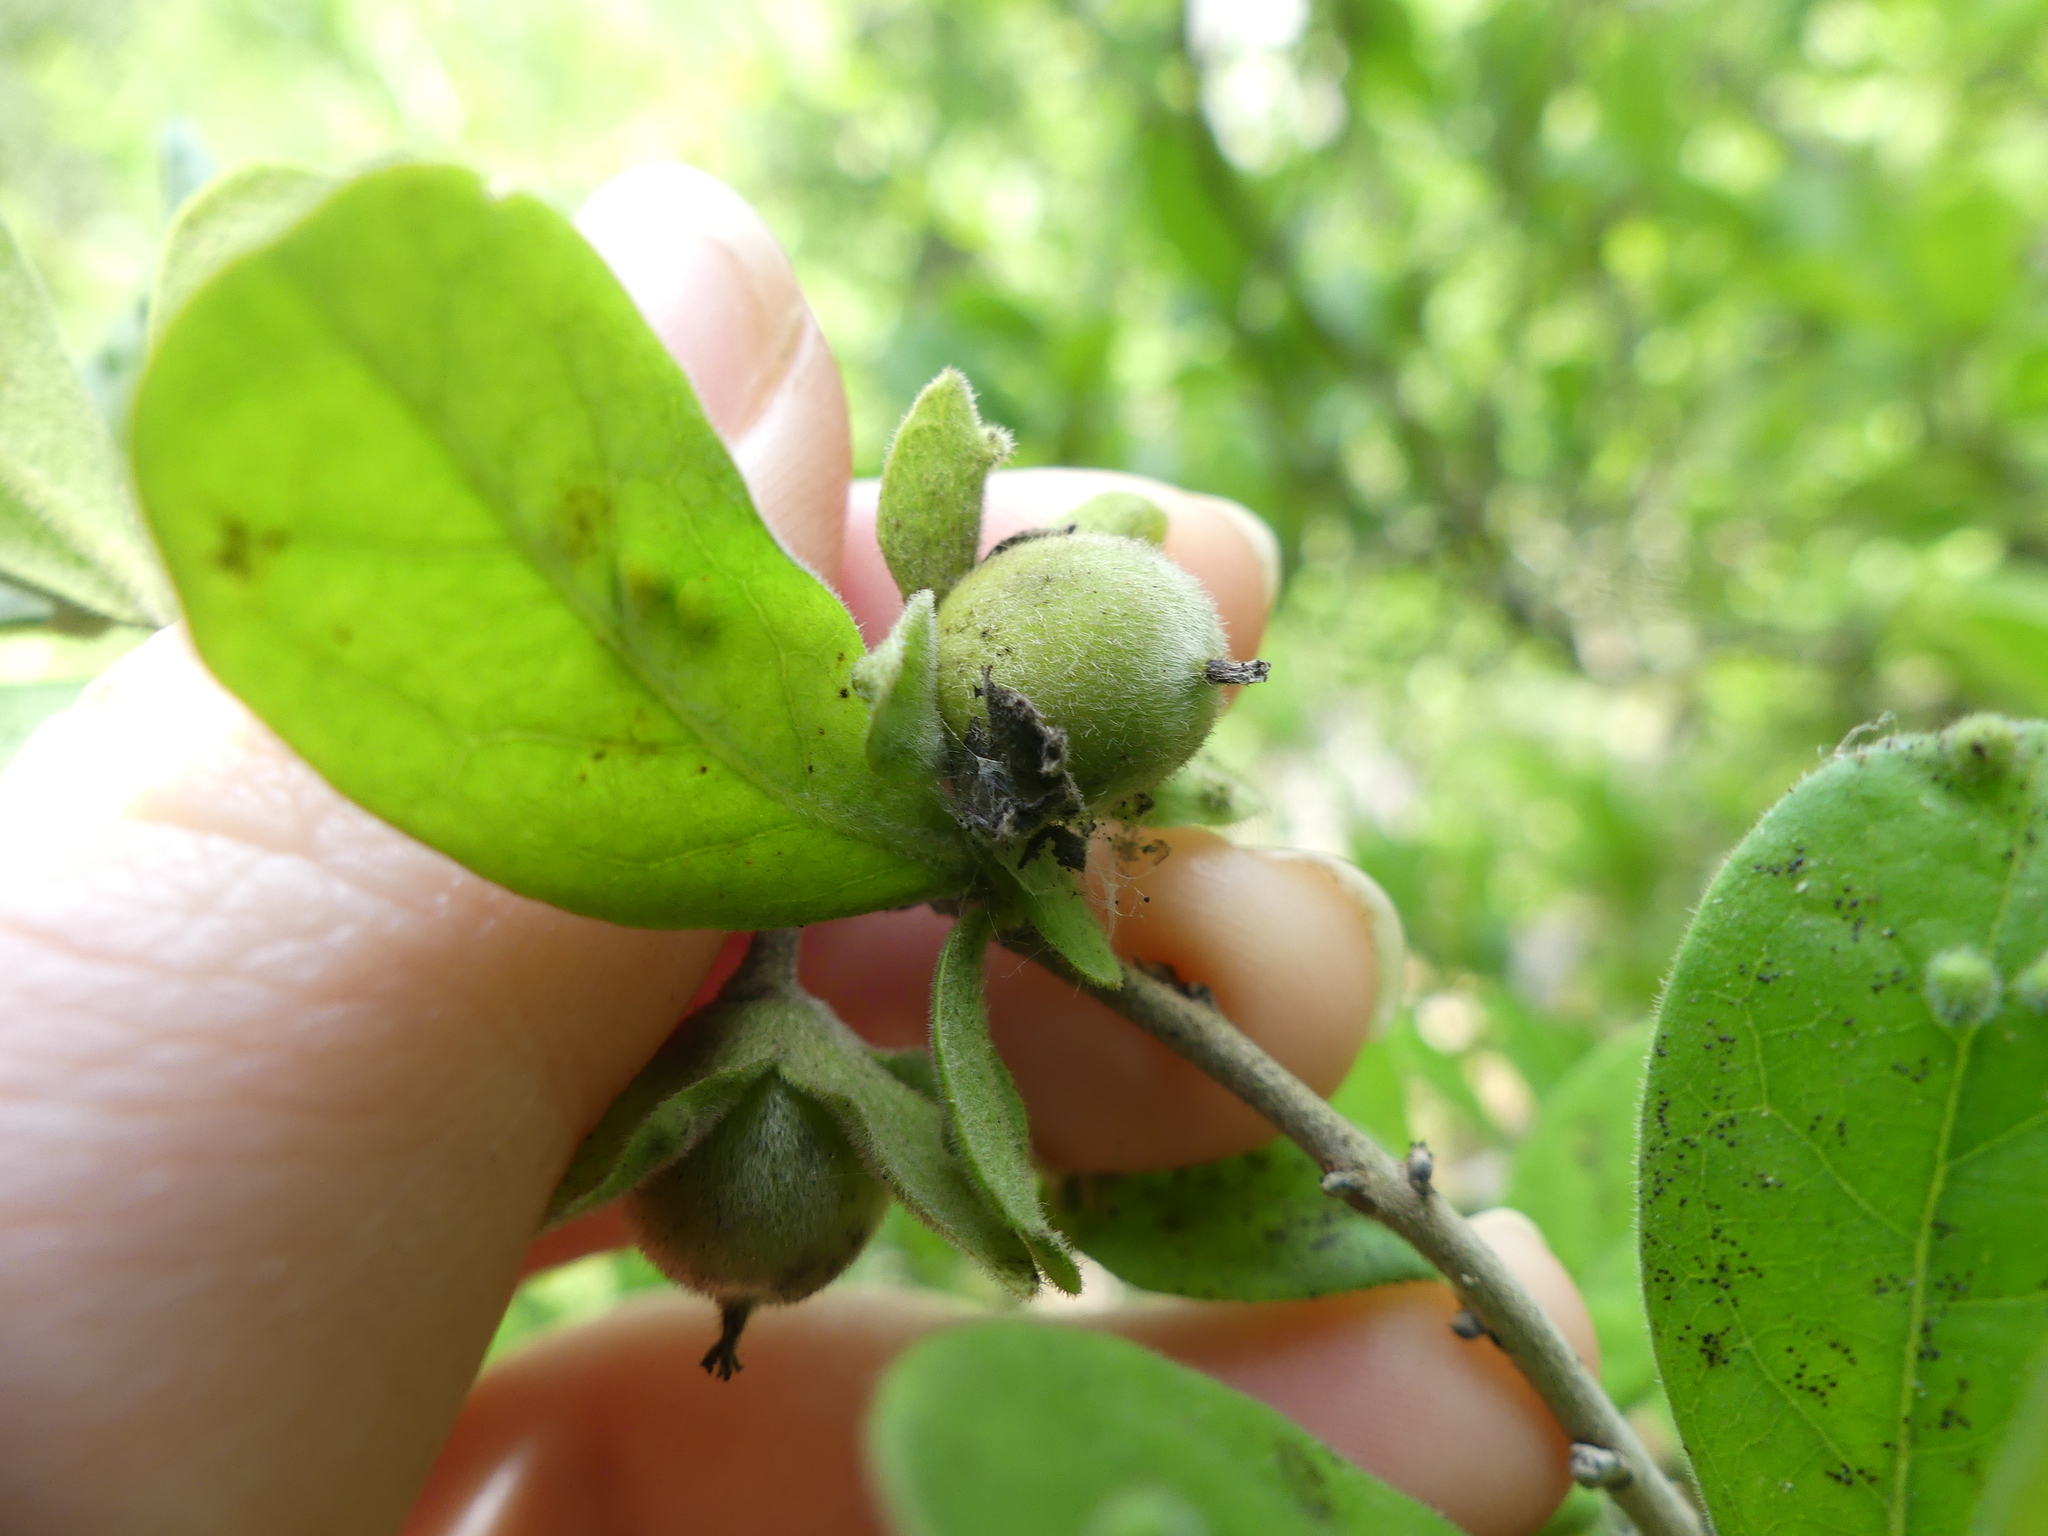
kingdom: Plantae
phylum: Tracheophyta
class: Magnoliopsida
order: Ericales
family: Ebenaceae
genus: Diospyros
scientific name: Diospyros texana
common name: Texas persimmon
